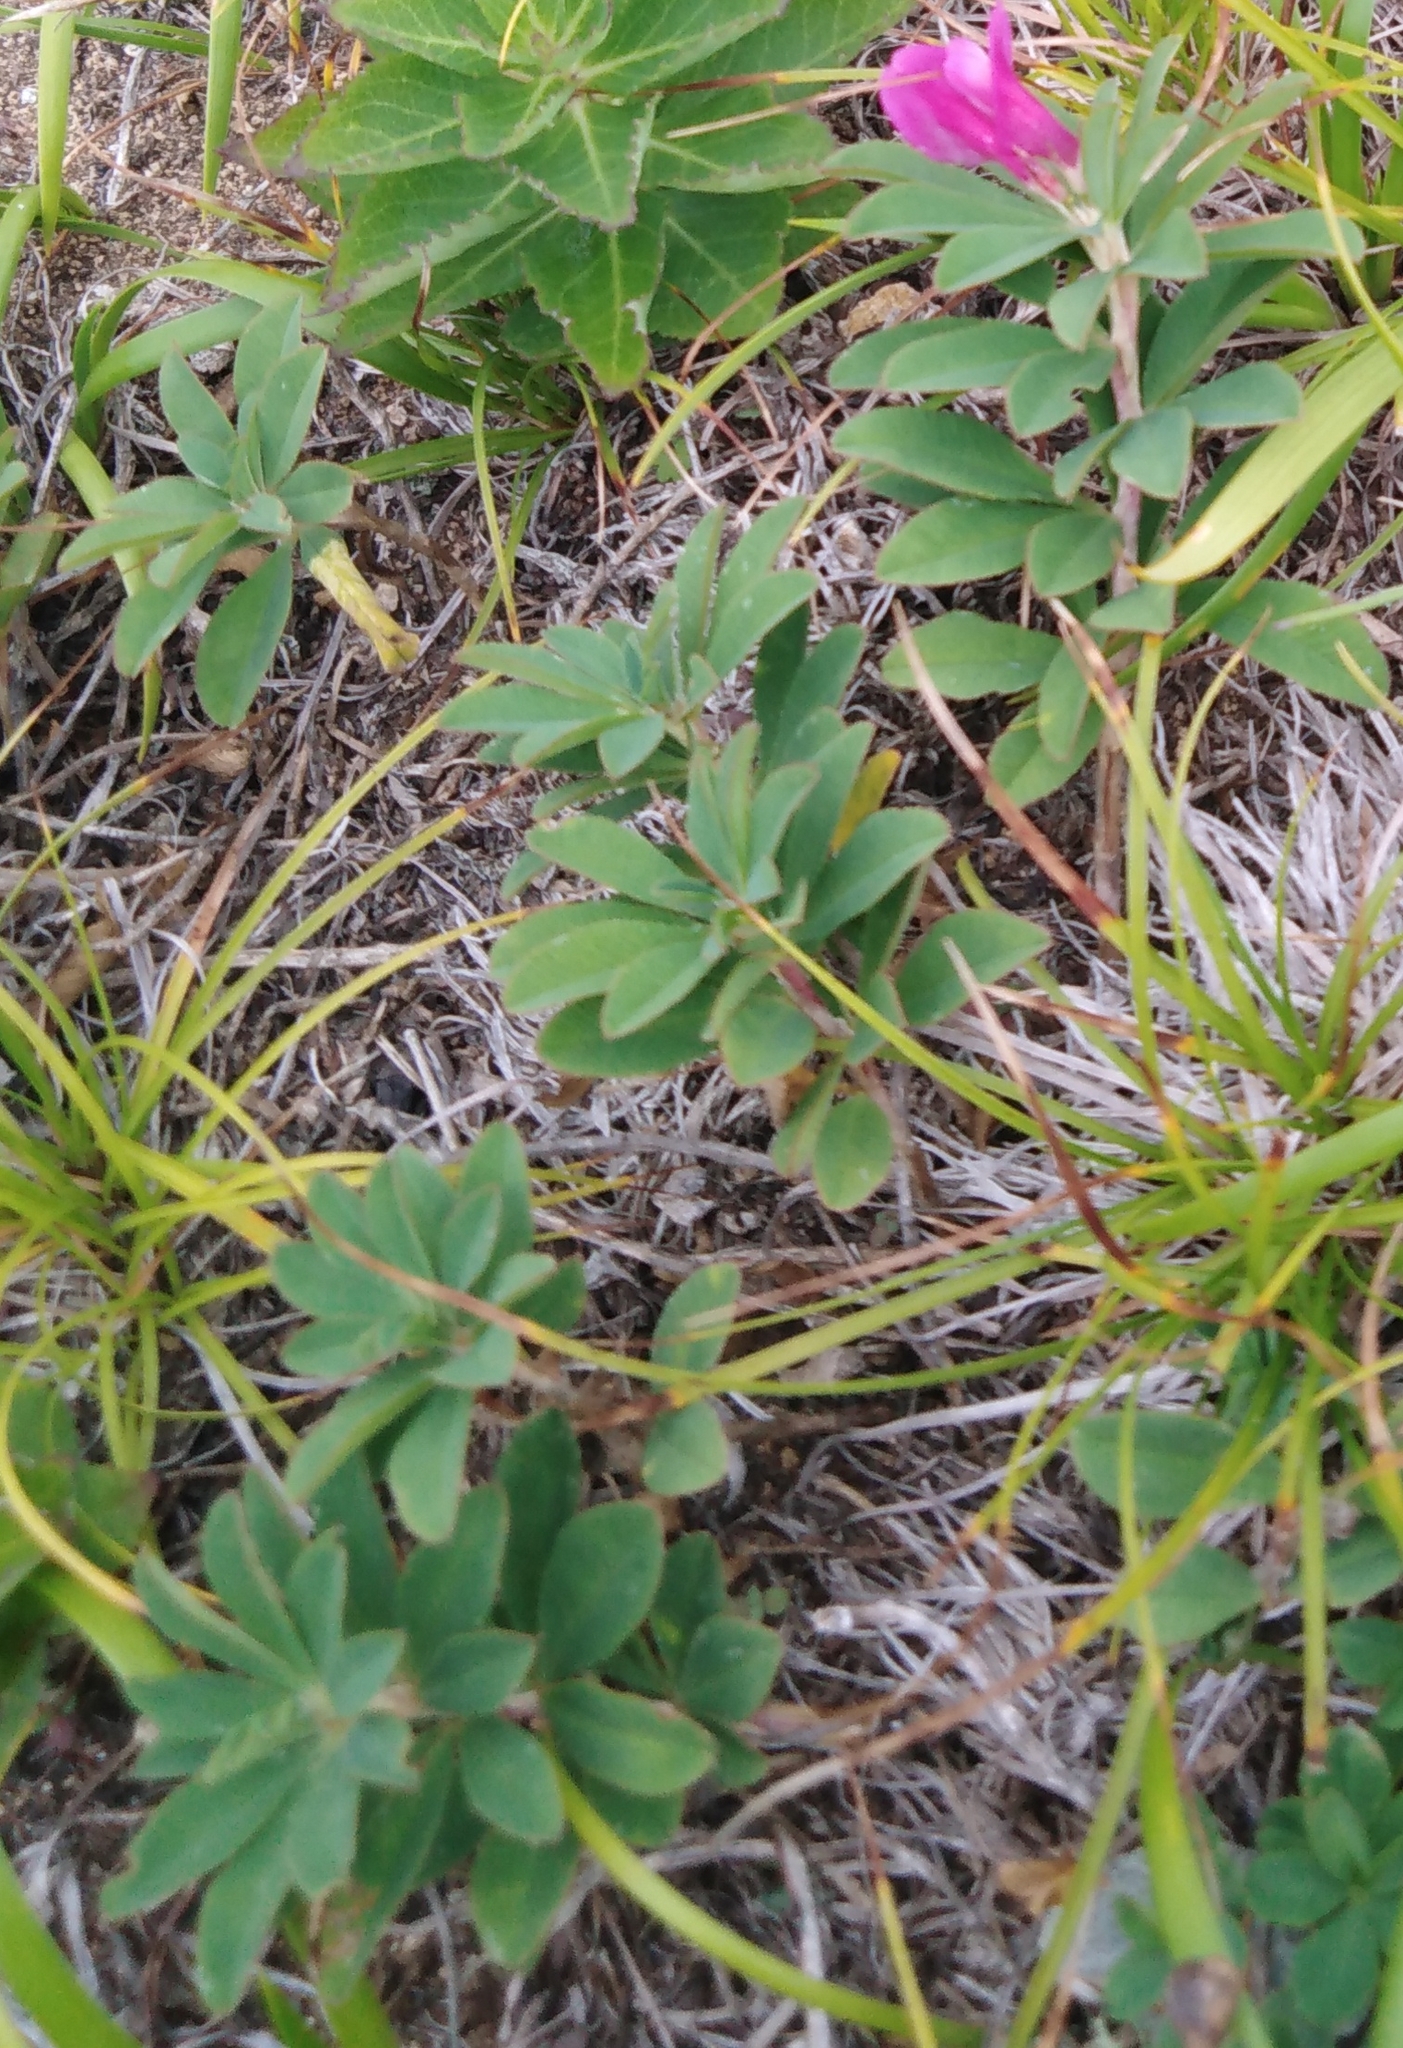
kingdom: Plantae
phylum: Tracheophyta
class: Magnoliopsida
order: Fabales
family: Fabaceae
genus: Trifolium
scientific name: Trifolium lupinaster
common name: Lupine clover
